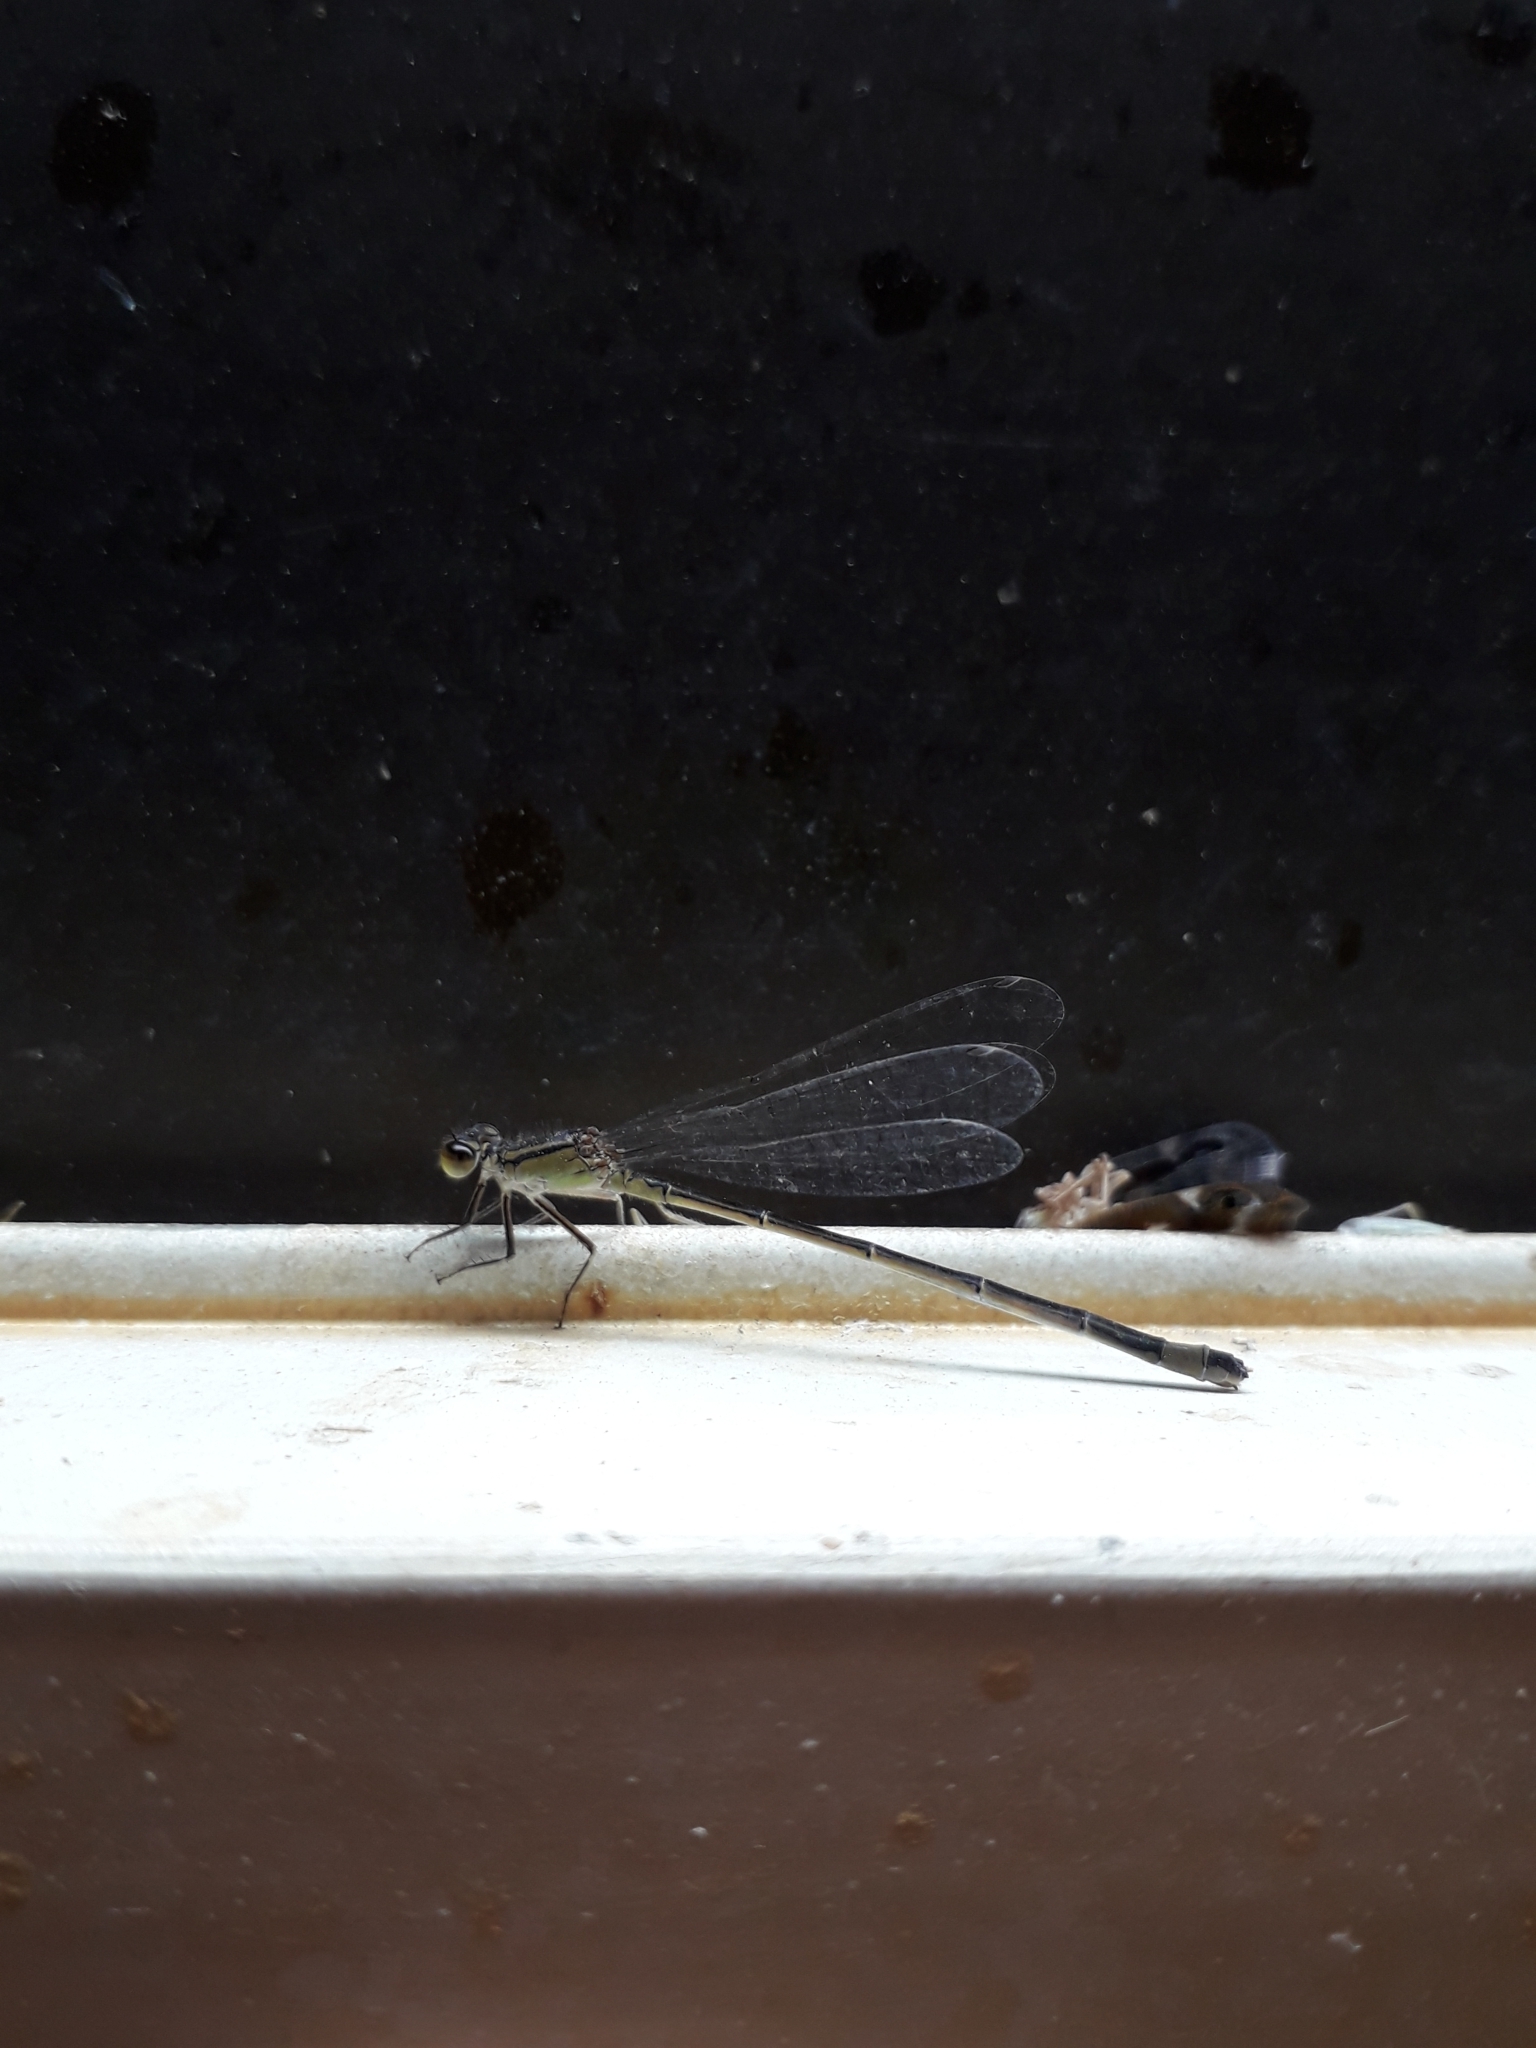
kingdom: Animalia
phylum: Arthropoda
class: Insecta
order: Odonata
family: Coenagrionidae
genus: Ischnura
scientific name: Ischnura elegans
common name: Blue-tailed damselfly
